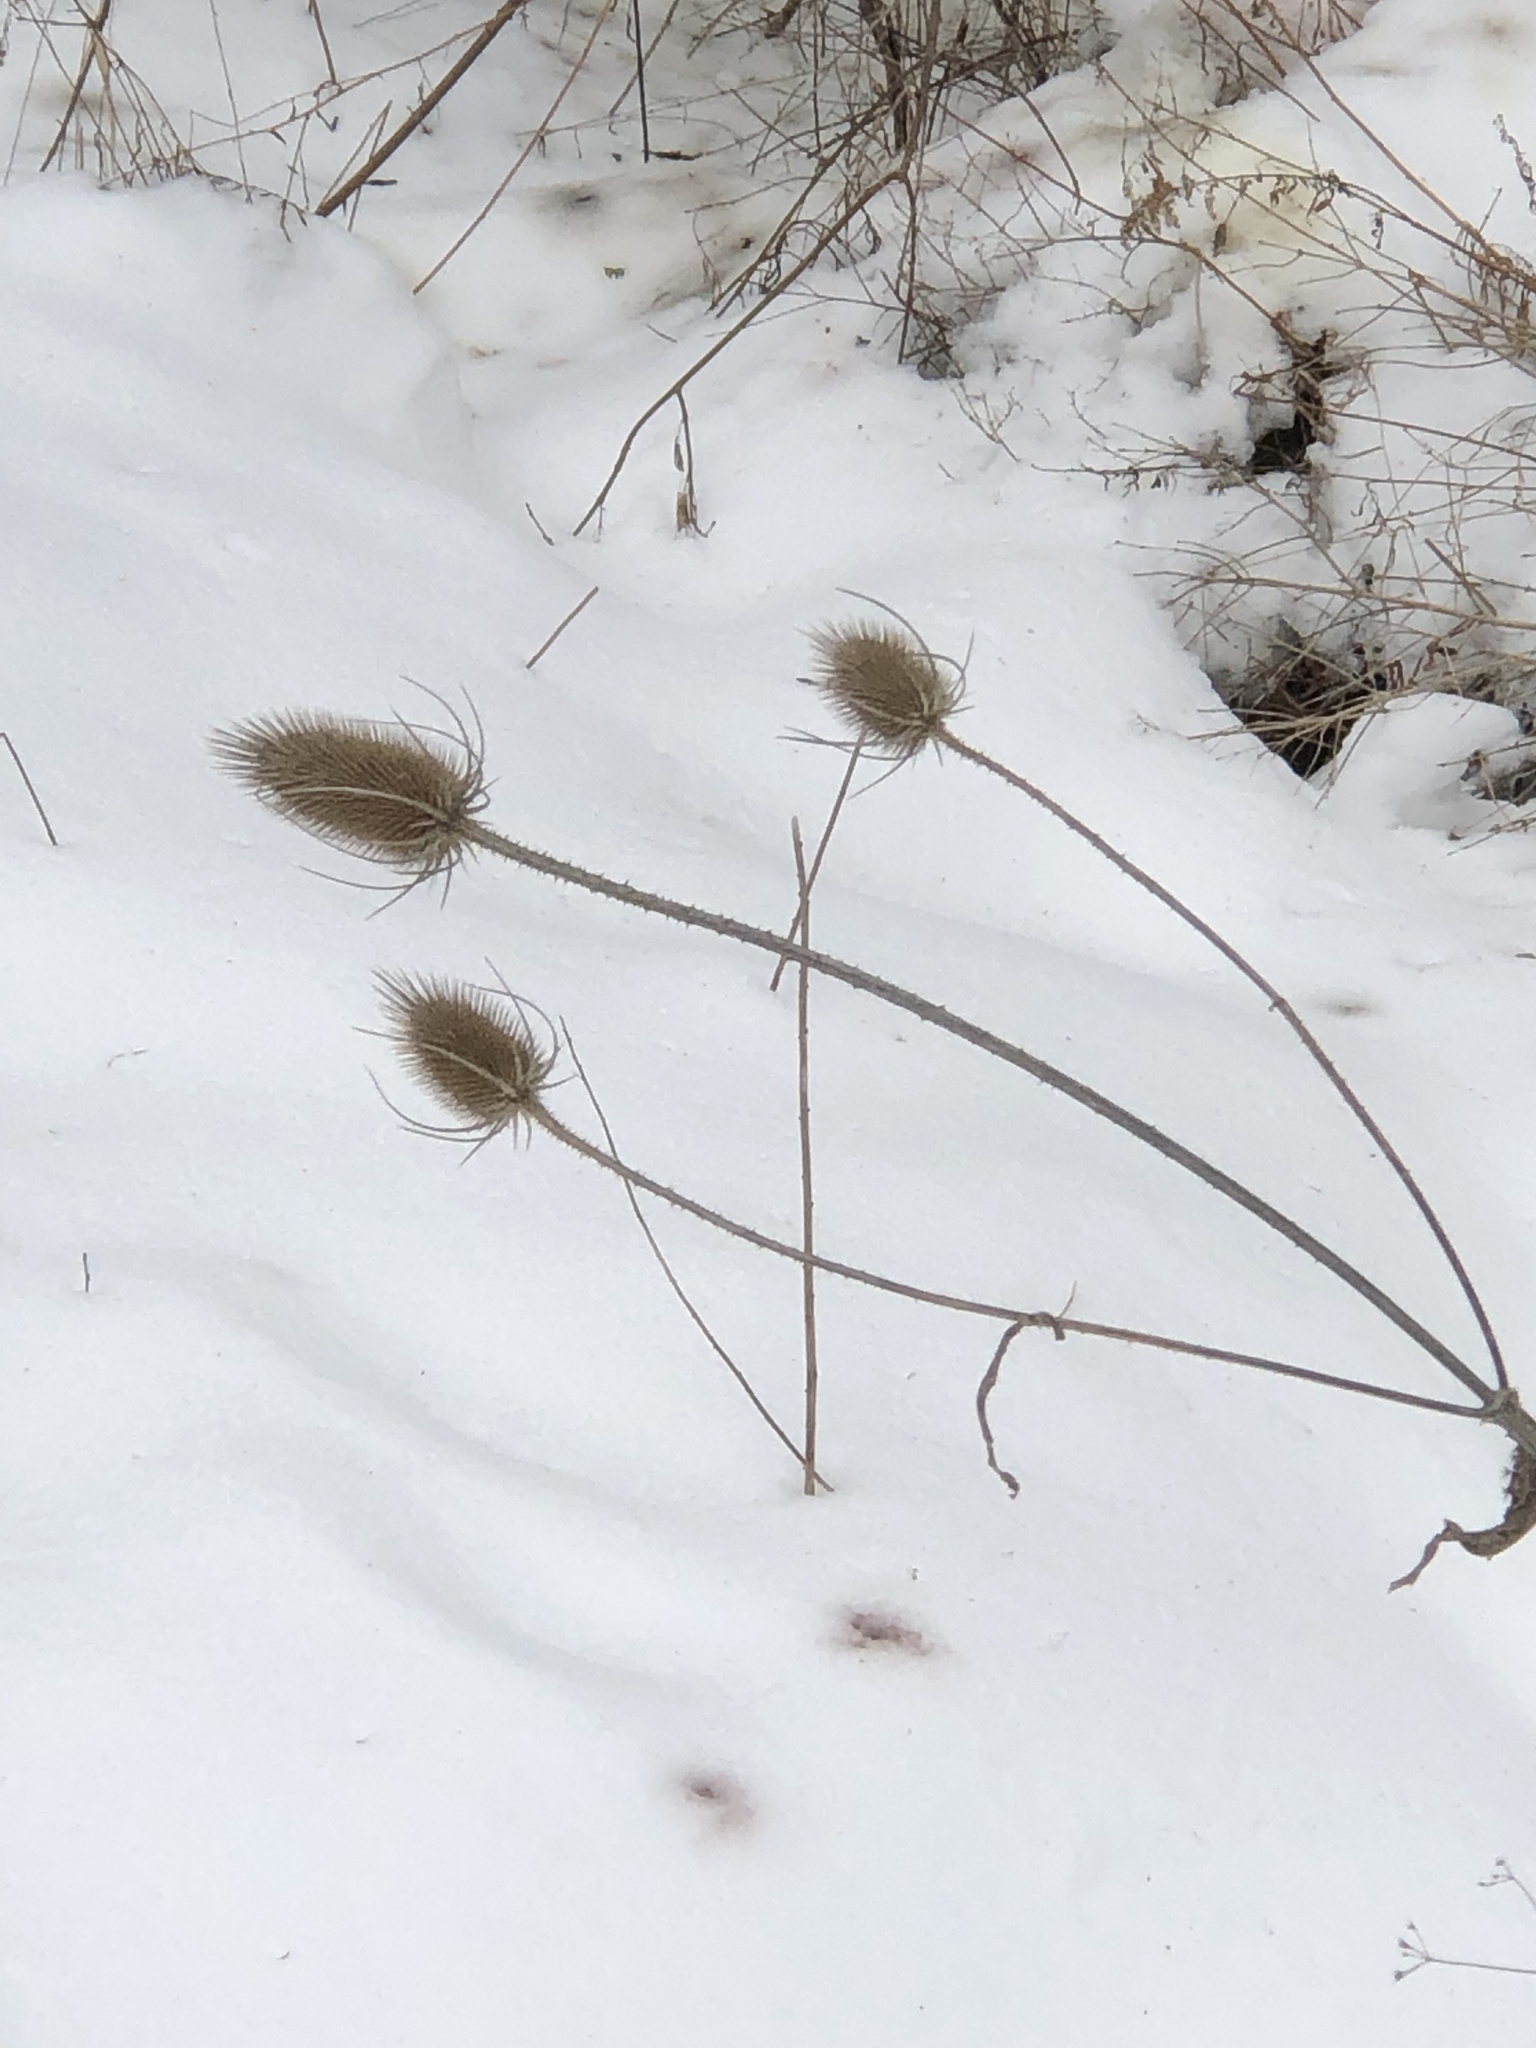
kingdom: Plantae
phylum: Tracheophyta
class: Magnoliopsida
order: Dipsacales
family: Caprifoliaceae
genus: Dipsacus
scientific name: Dipsacus fullonum
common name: Teasel
